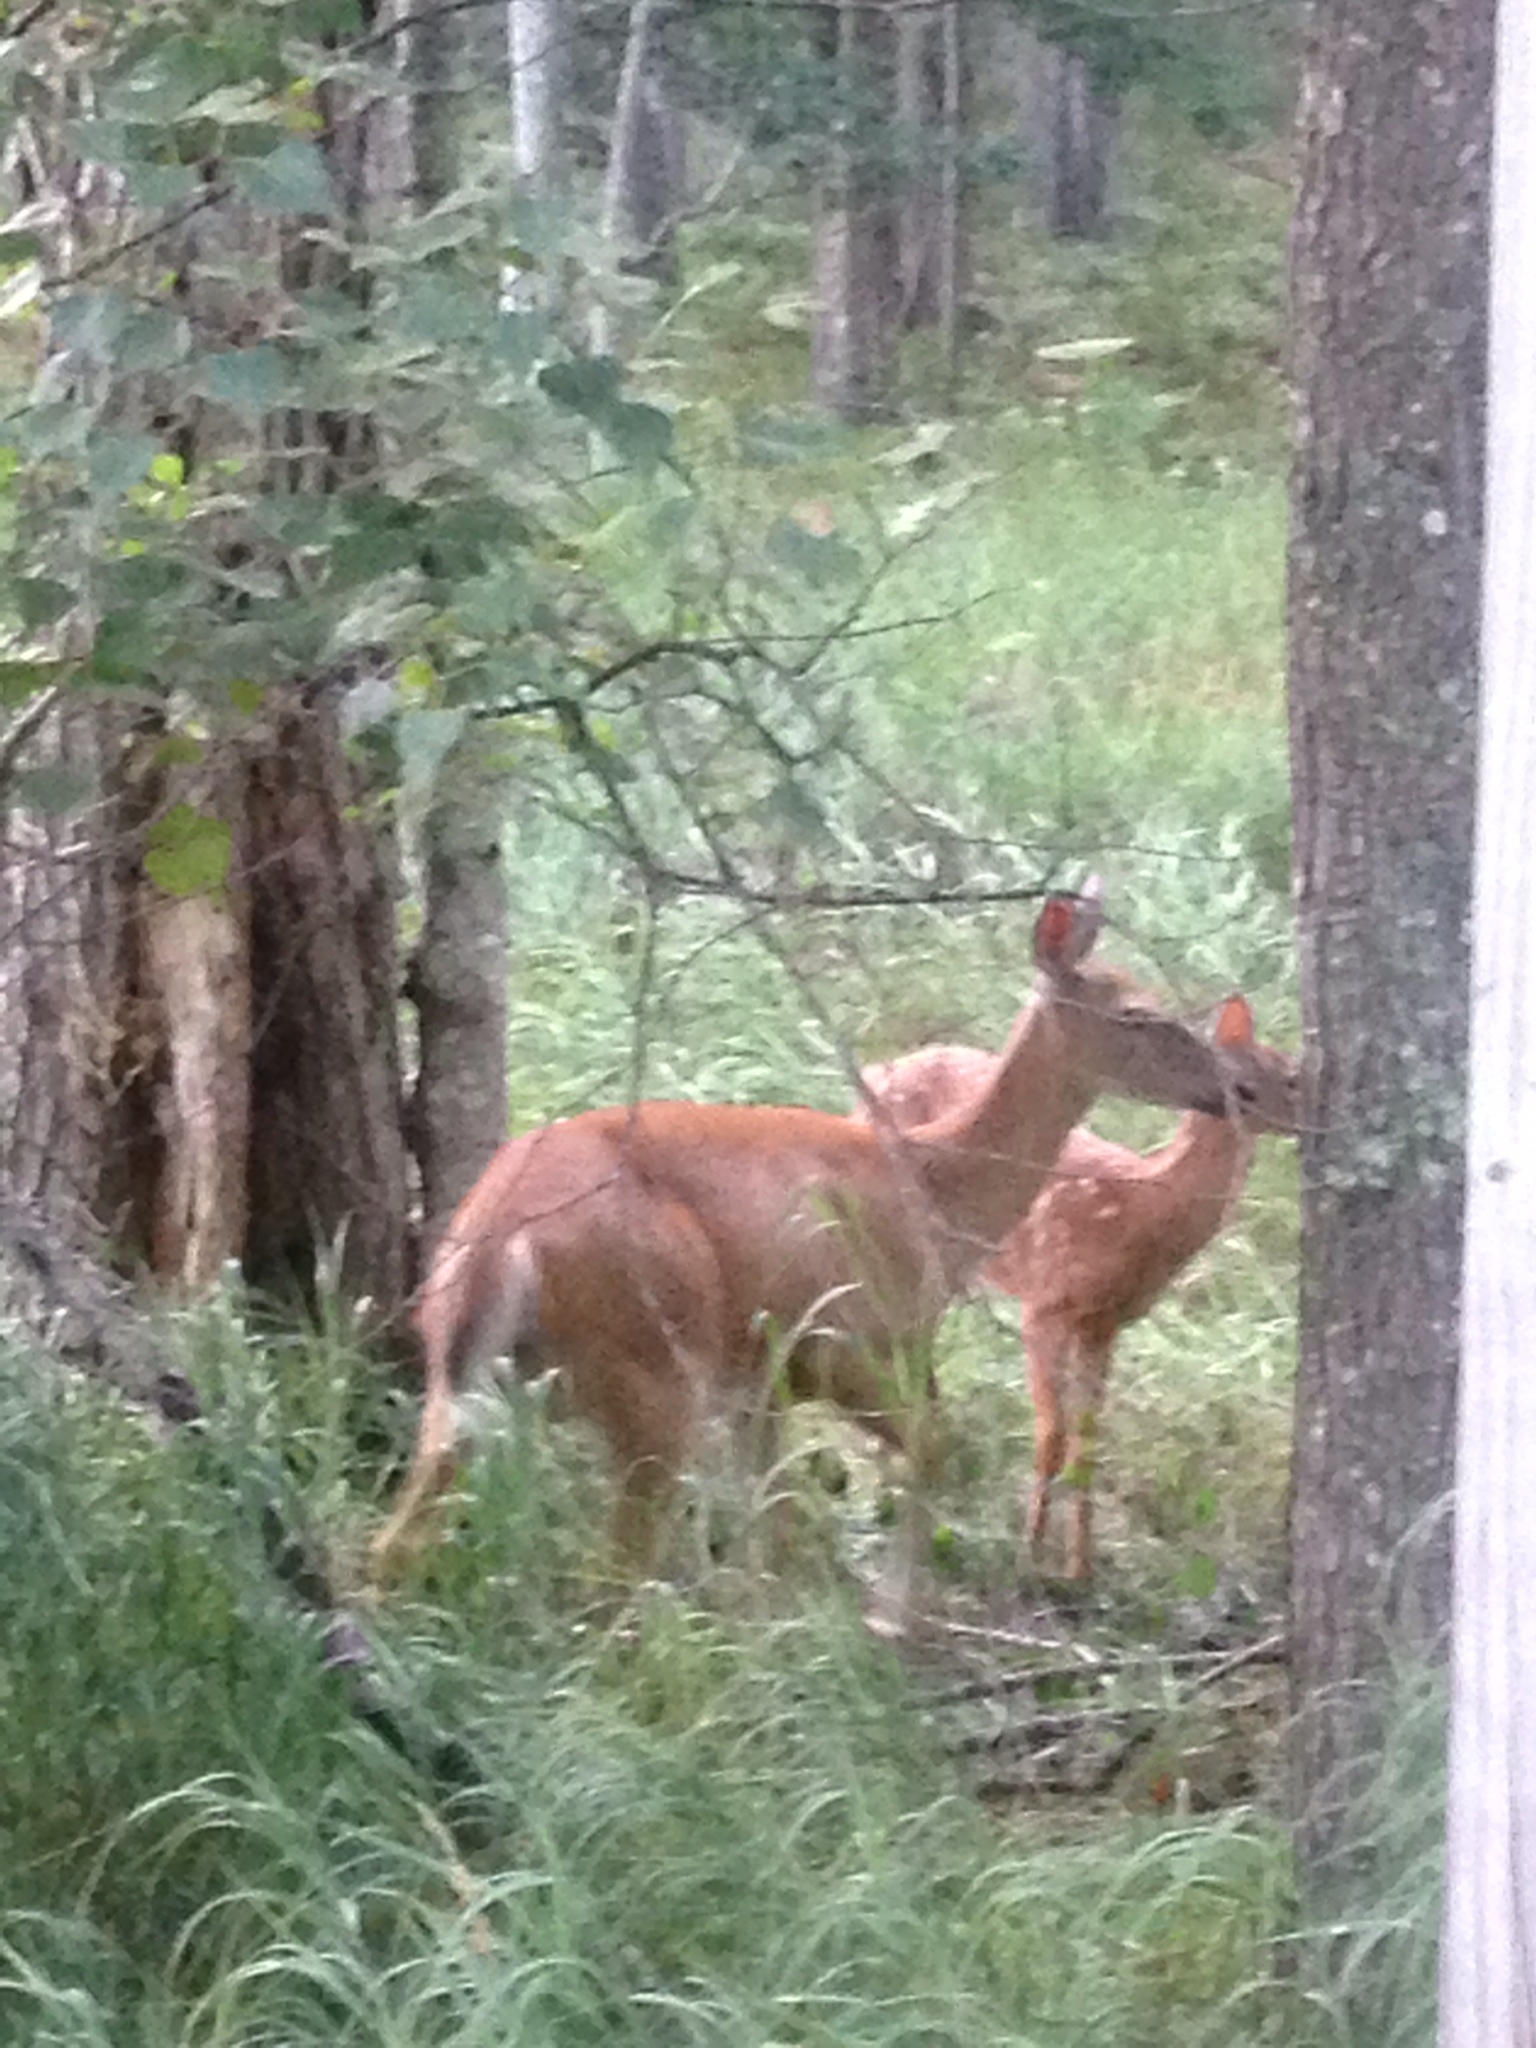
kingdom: Animalia
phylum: Chordata
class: Mammalia
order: Artiodactyla
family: Cervidae
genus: Odocoileus
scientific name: Odocoileus virginianus
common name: White-tailed deer
